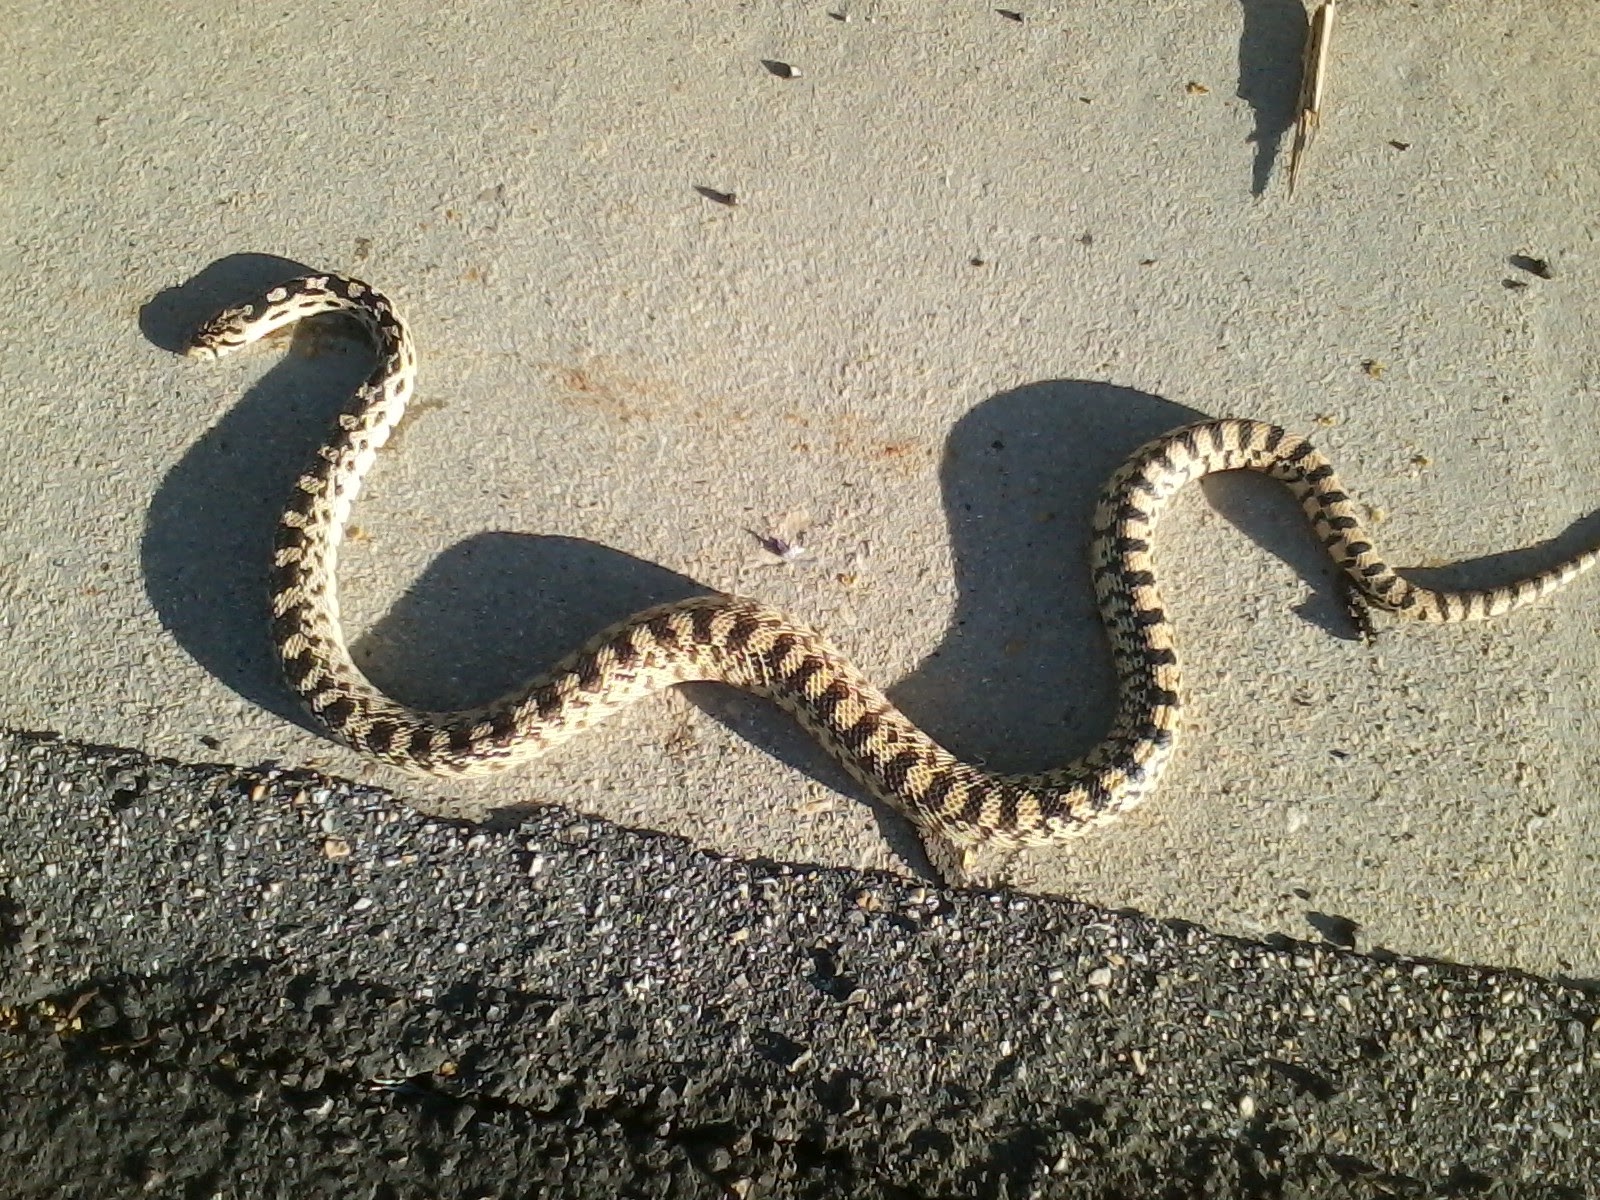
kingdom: Animalia
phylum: Chordata
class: Squamata
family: Colubridae
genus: Pituophis
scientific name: Pituophis catenifer
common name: Gopher snake
